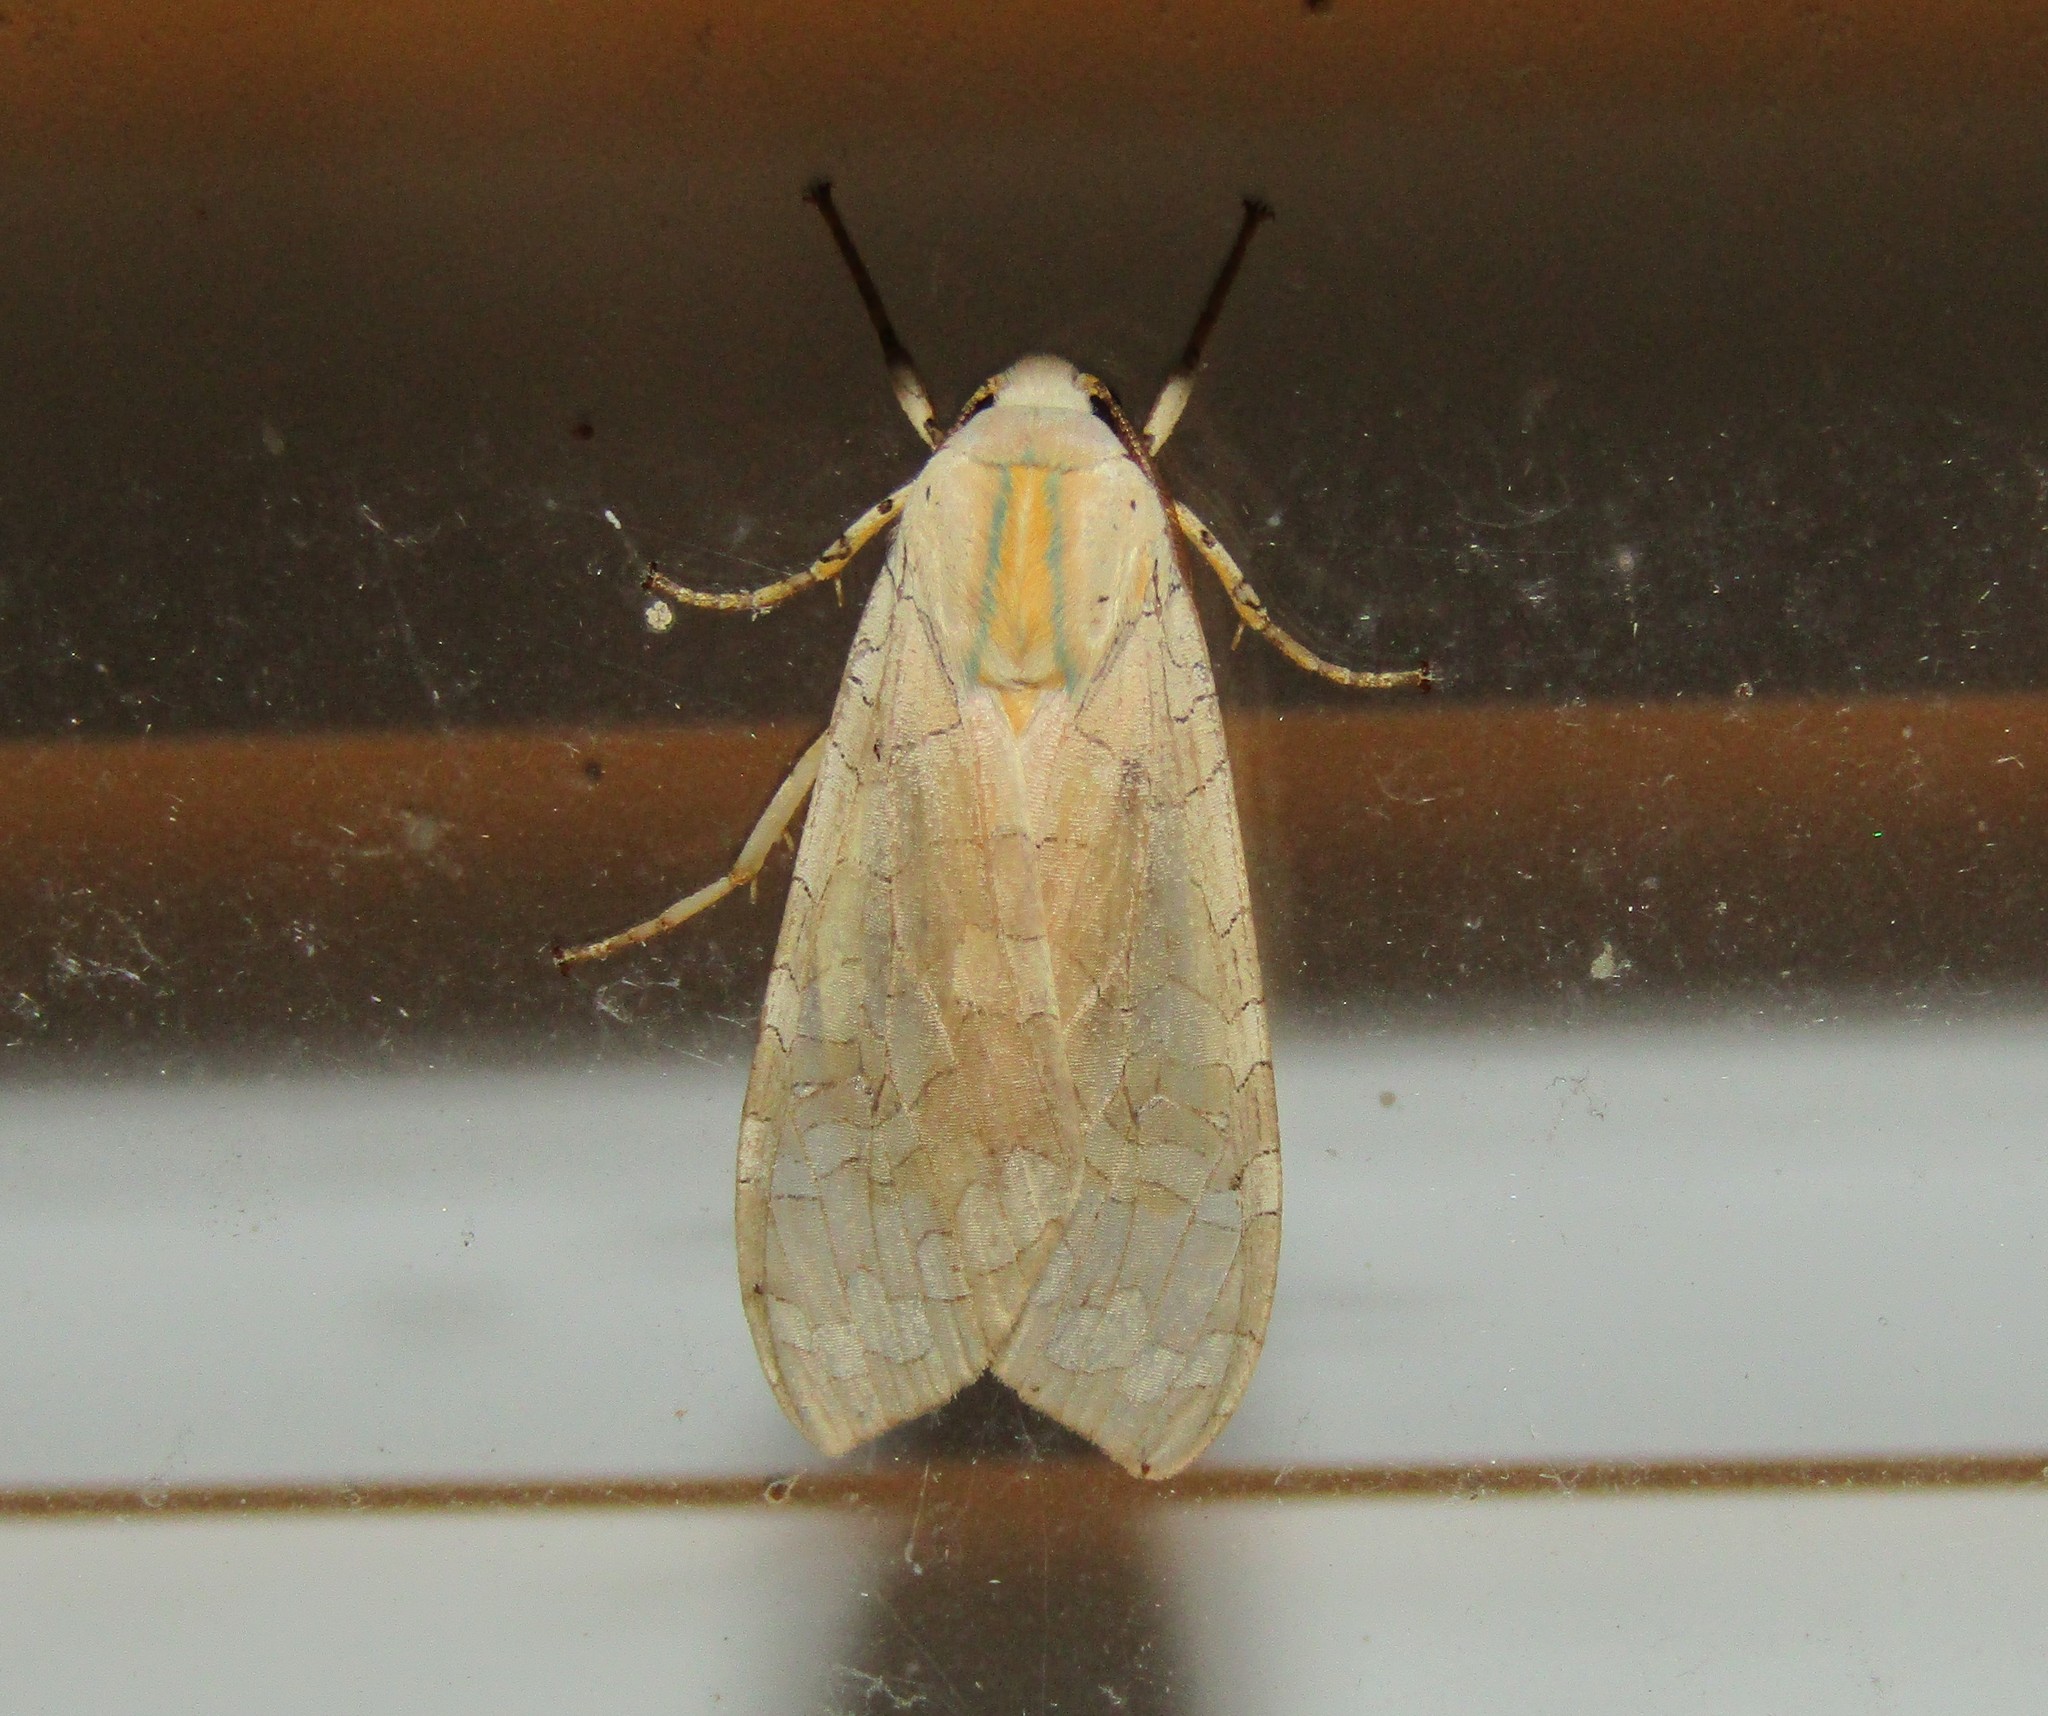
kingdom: Animalia
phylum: Arthropoda
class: Insecta
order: Lepidoptera
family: Erebidae
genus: Halysidota
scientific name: Halysidota
